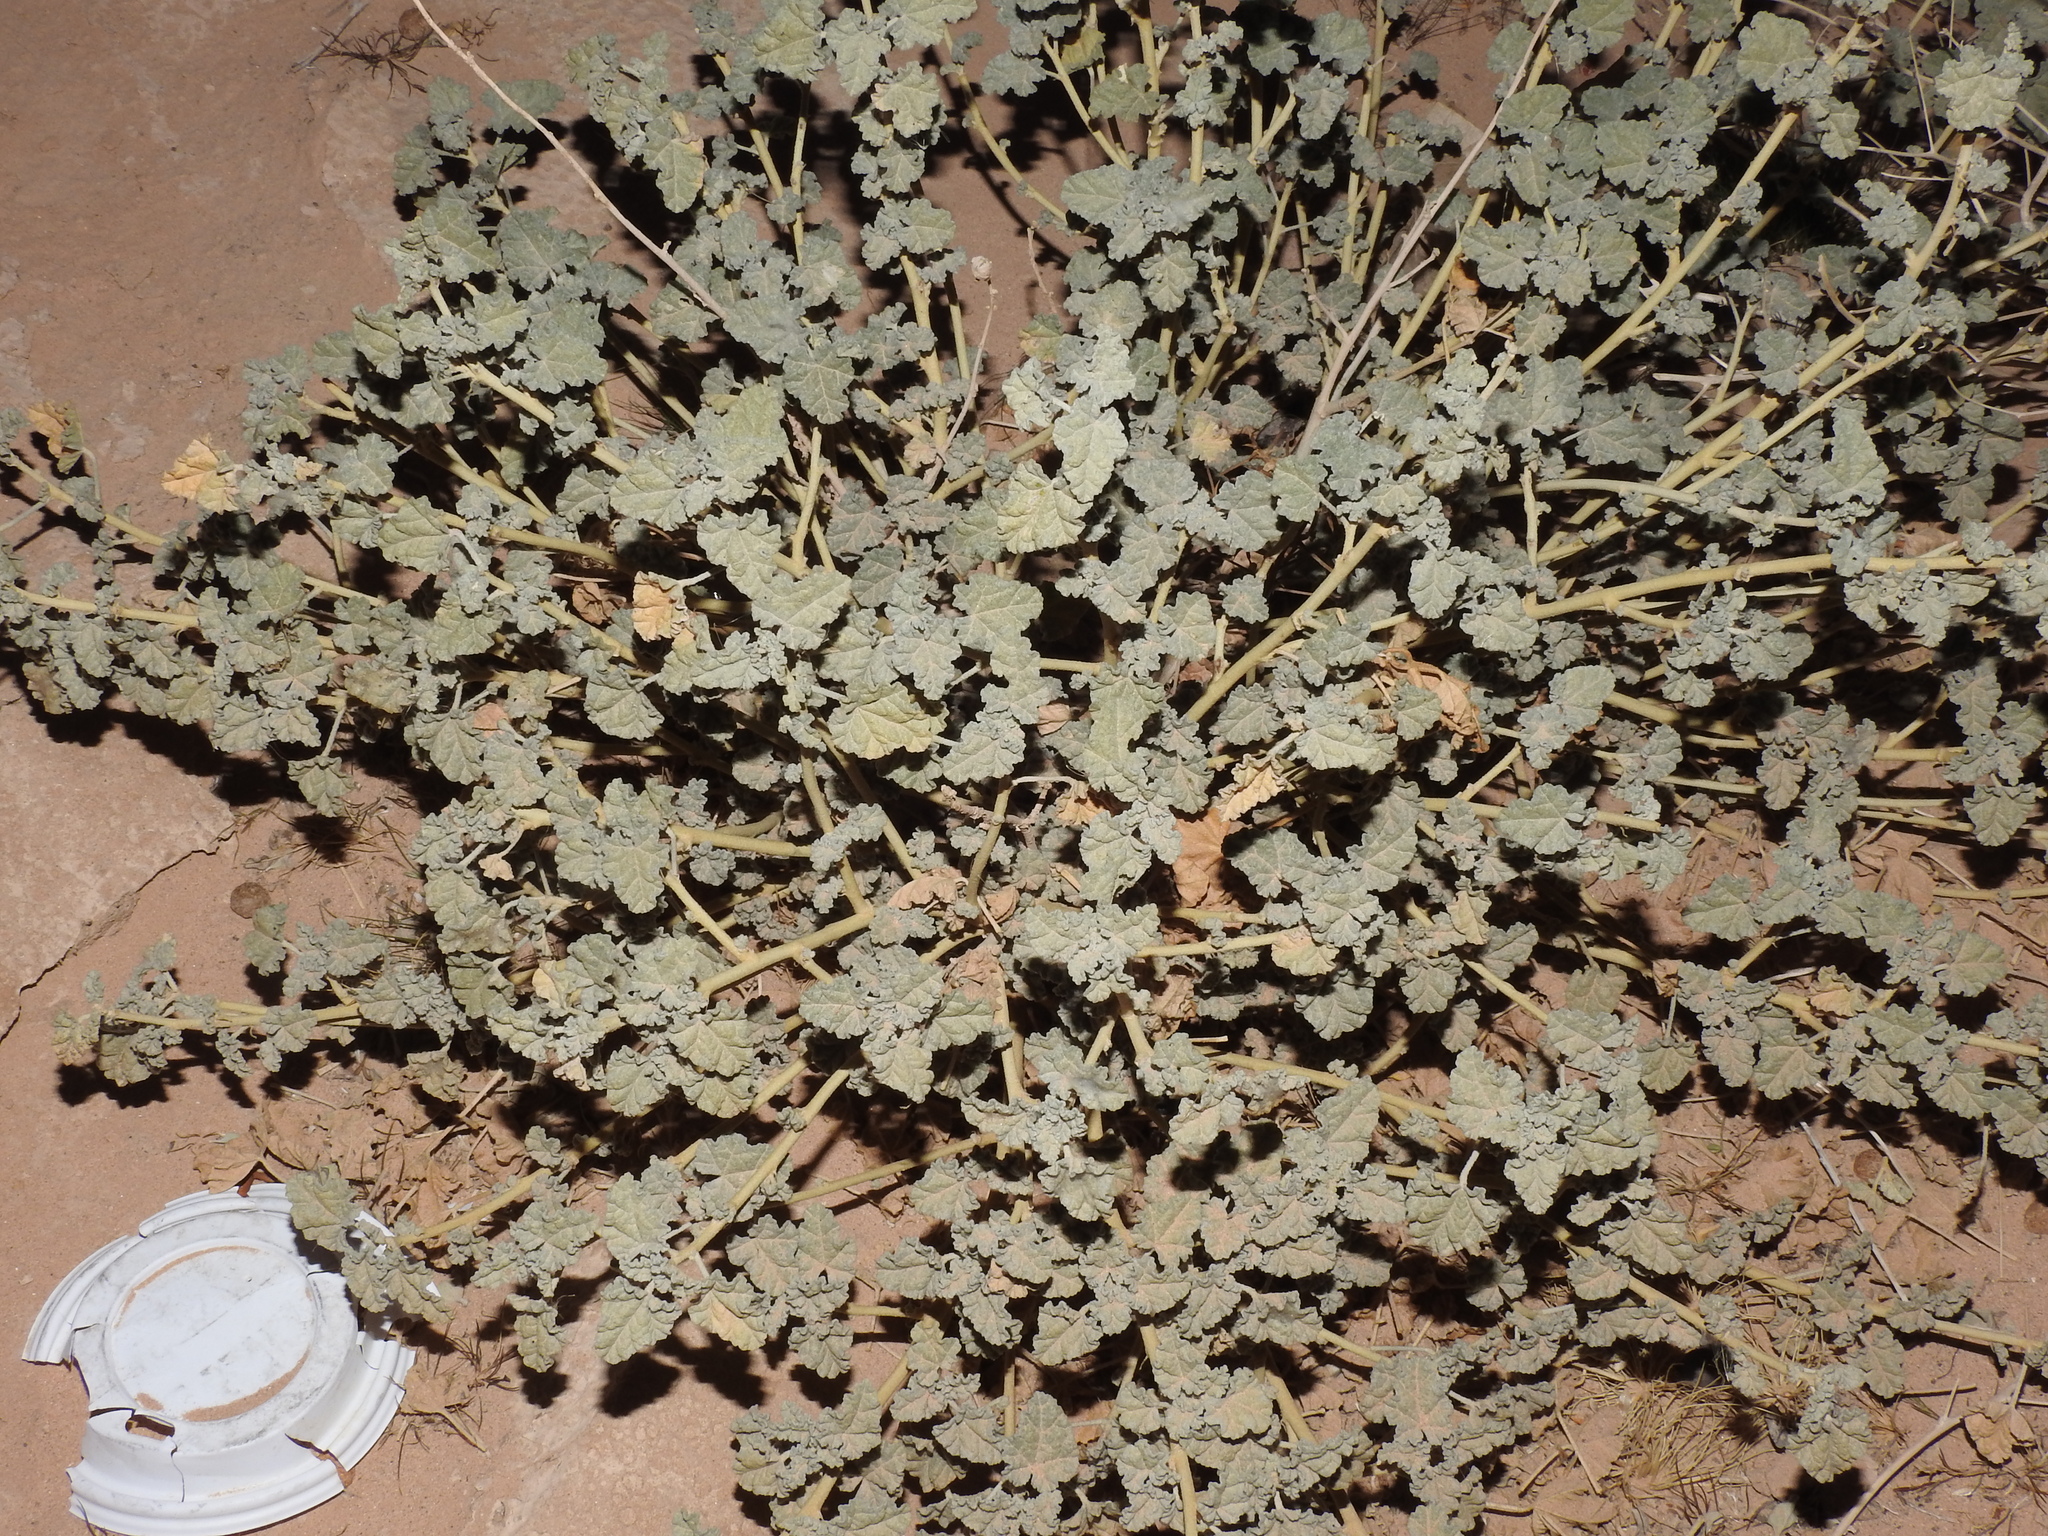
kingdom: Plantae
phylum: Tracheophyta
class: Magnoliopsida
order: Malvales
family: Malvaceae
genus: Sphaeralcea
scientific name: Sphaeralcea ambigua
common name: Apricot globe-mallow
